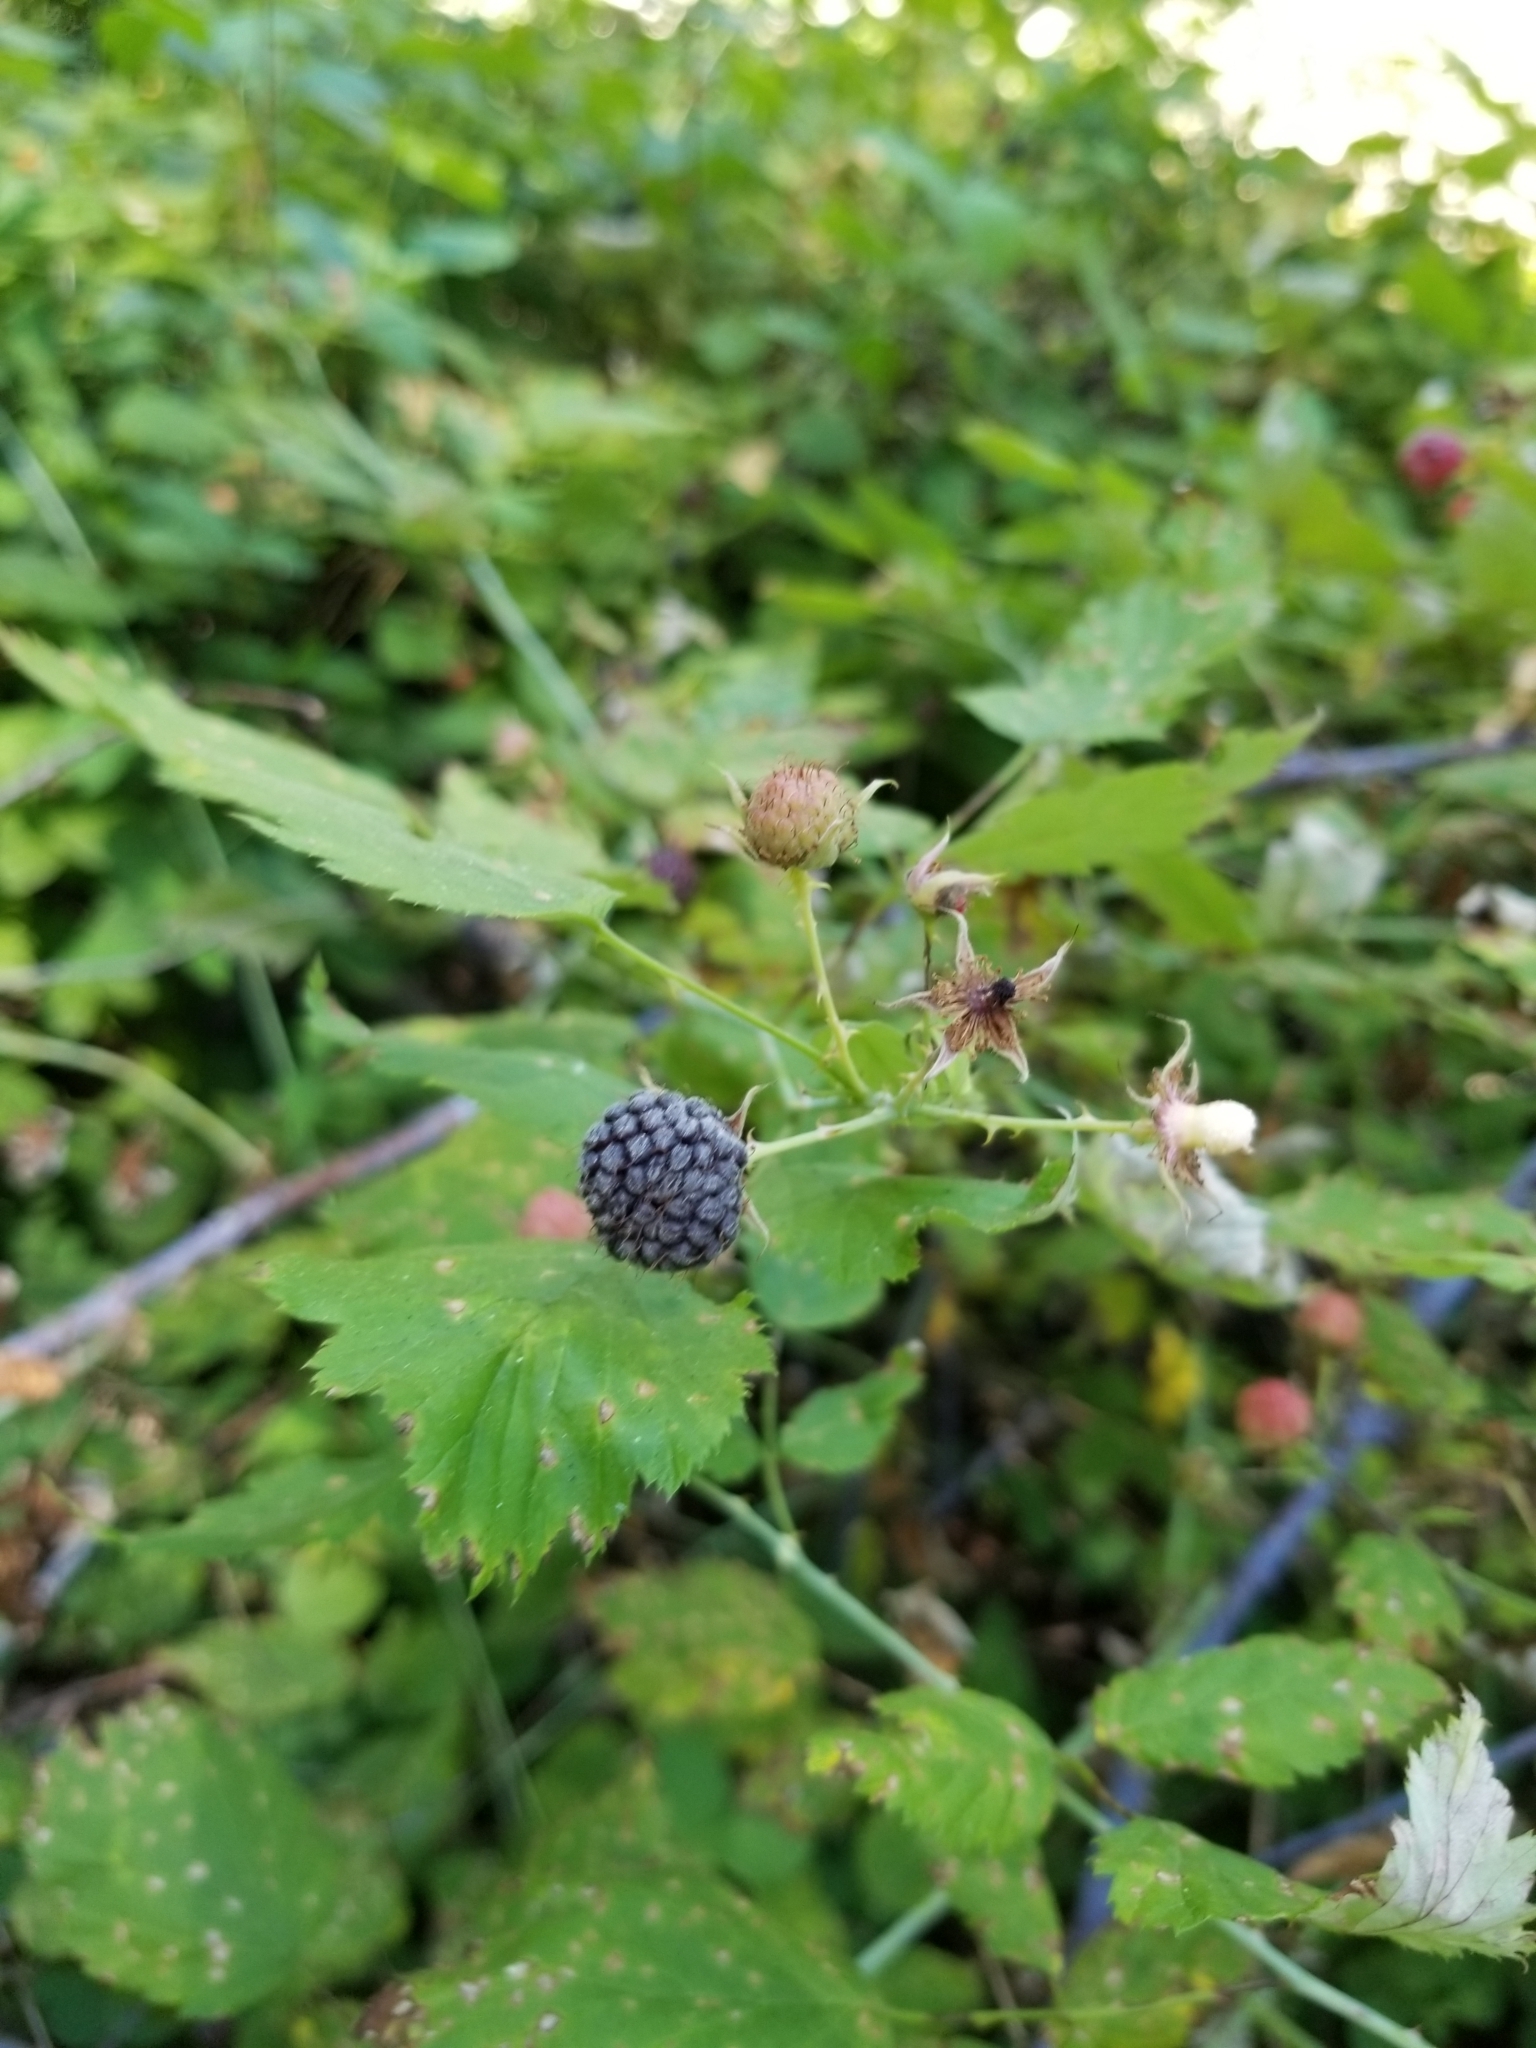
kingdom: Plantae
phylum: Tracheophyta
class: Magnoliopsida
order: Rosales
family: Rosaceae
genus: Rubus
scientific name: Rubus leucodermis
